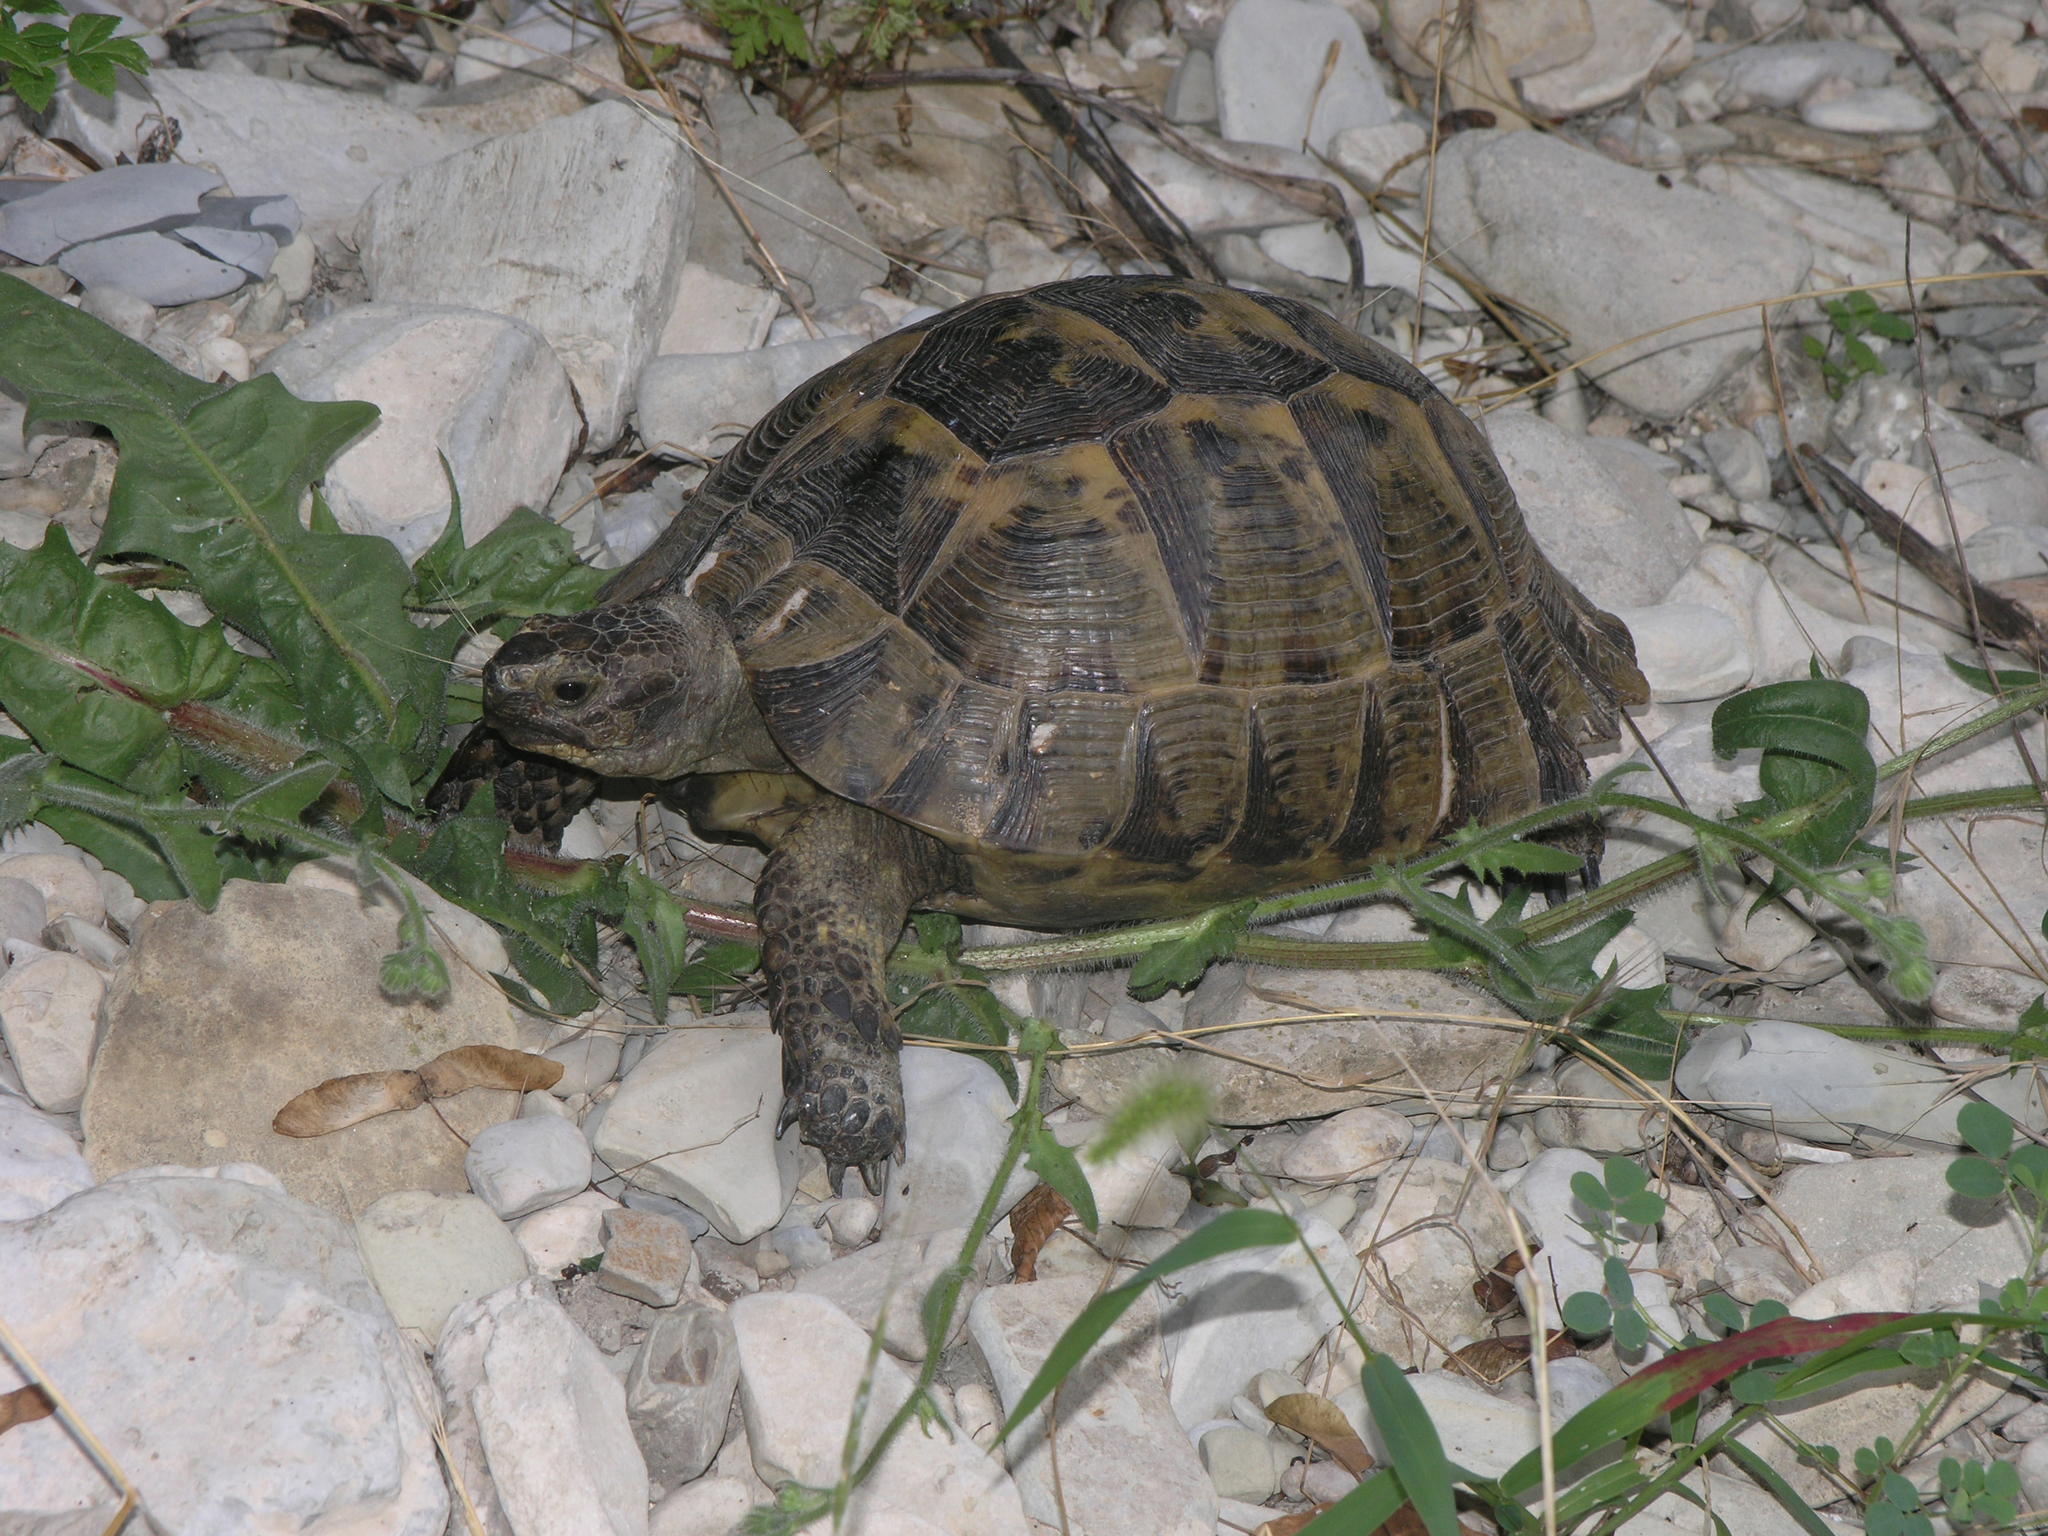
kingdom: Animalia
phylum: Chordata
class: Testudines
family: Testudinidae
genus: Testudo
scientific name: Testudo graeca
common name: Common tortoise
